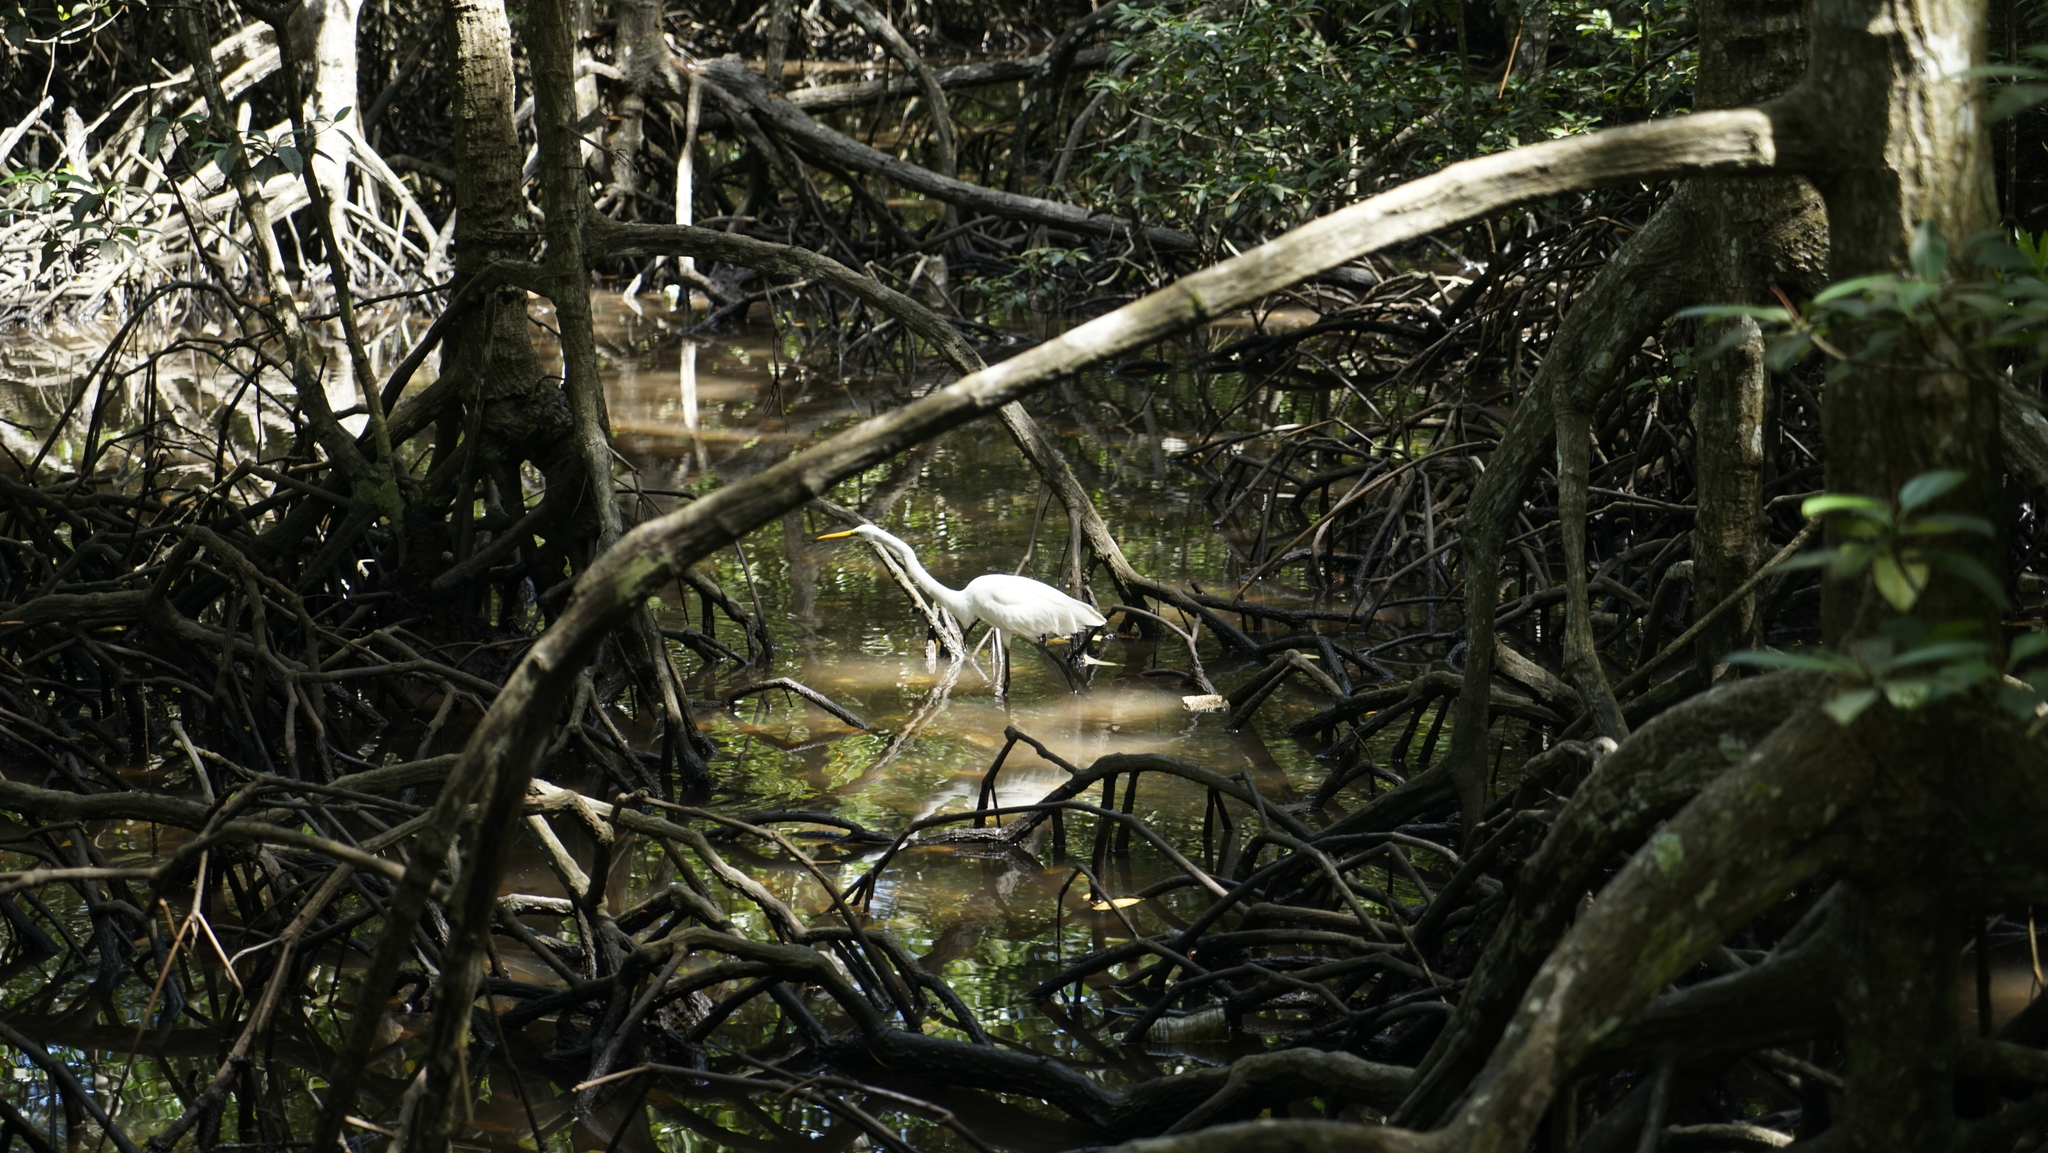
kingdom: Animalia
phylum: Chordata
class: Aves
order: Pelecaniformes
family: Ardeidae
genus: Ardea
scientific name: Ardea alba
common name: Great egret
